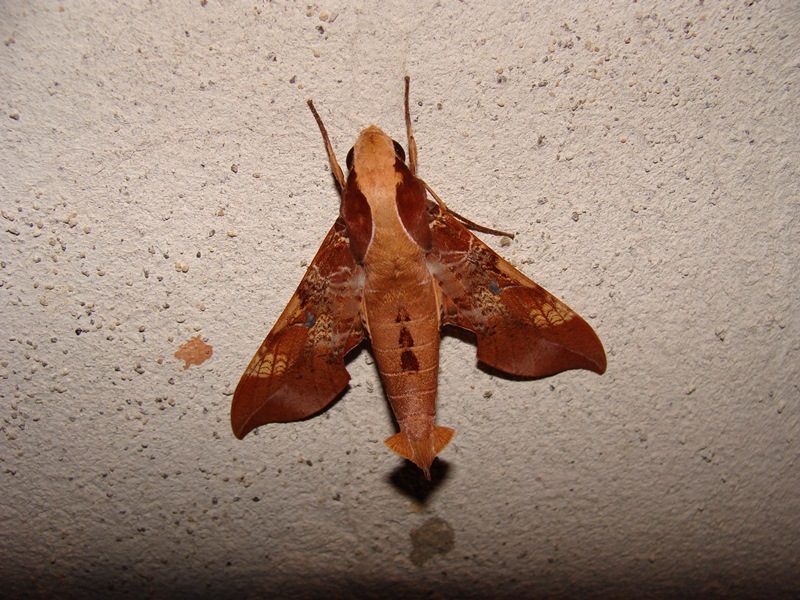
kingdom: Animalia
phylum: Arthropoda
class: Insecta
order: Lepidoptera
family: Sphingidae
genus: Callionima
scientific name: Callionima inuus
